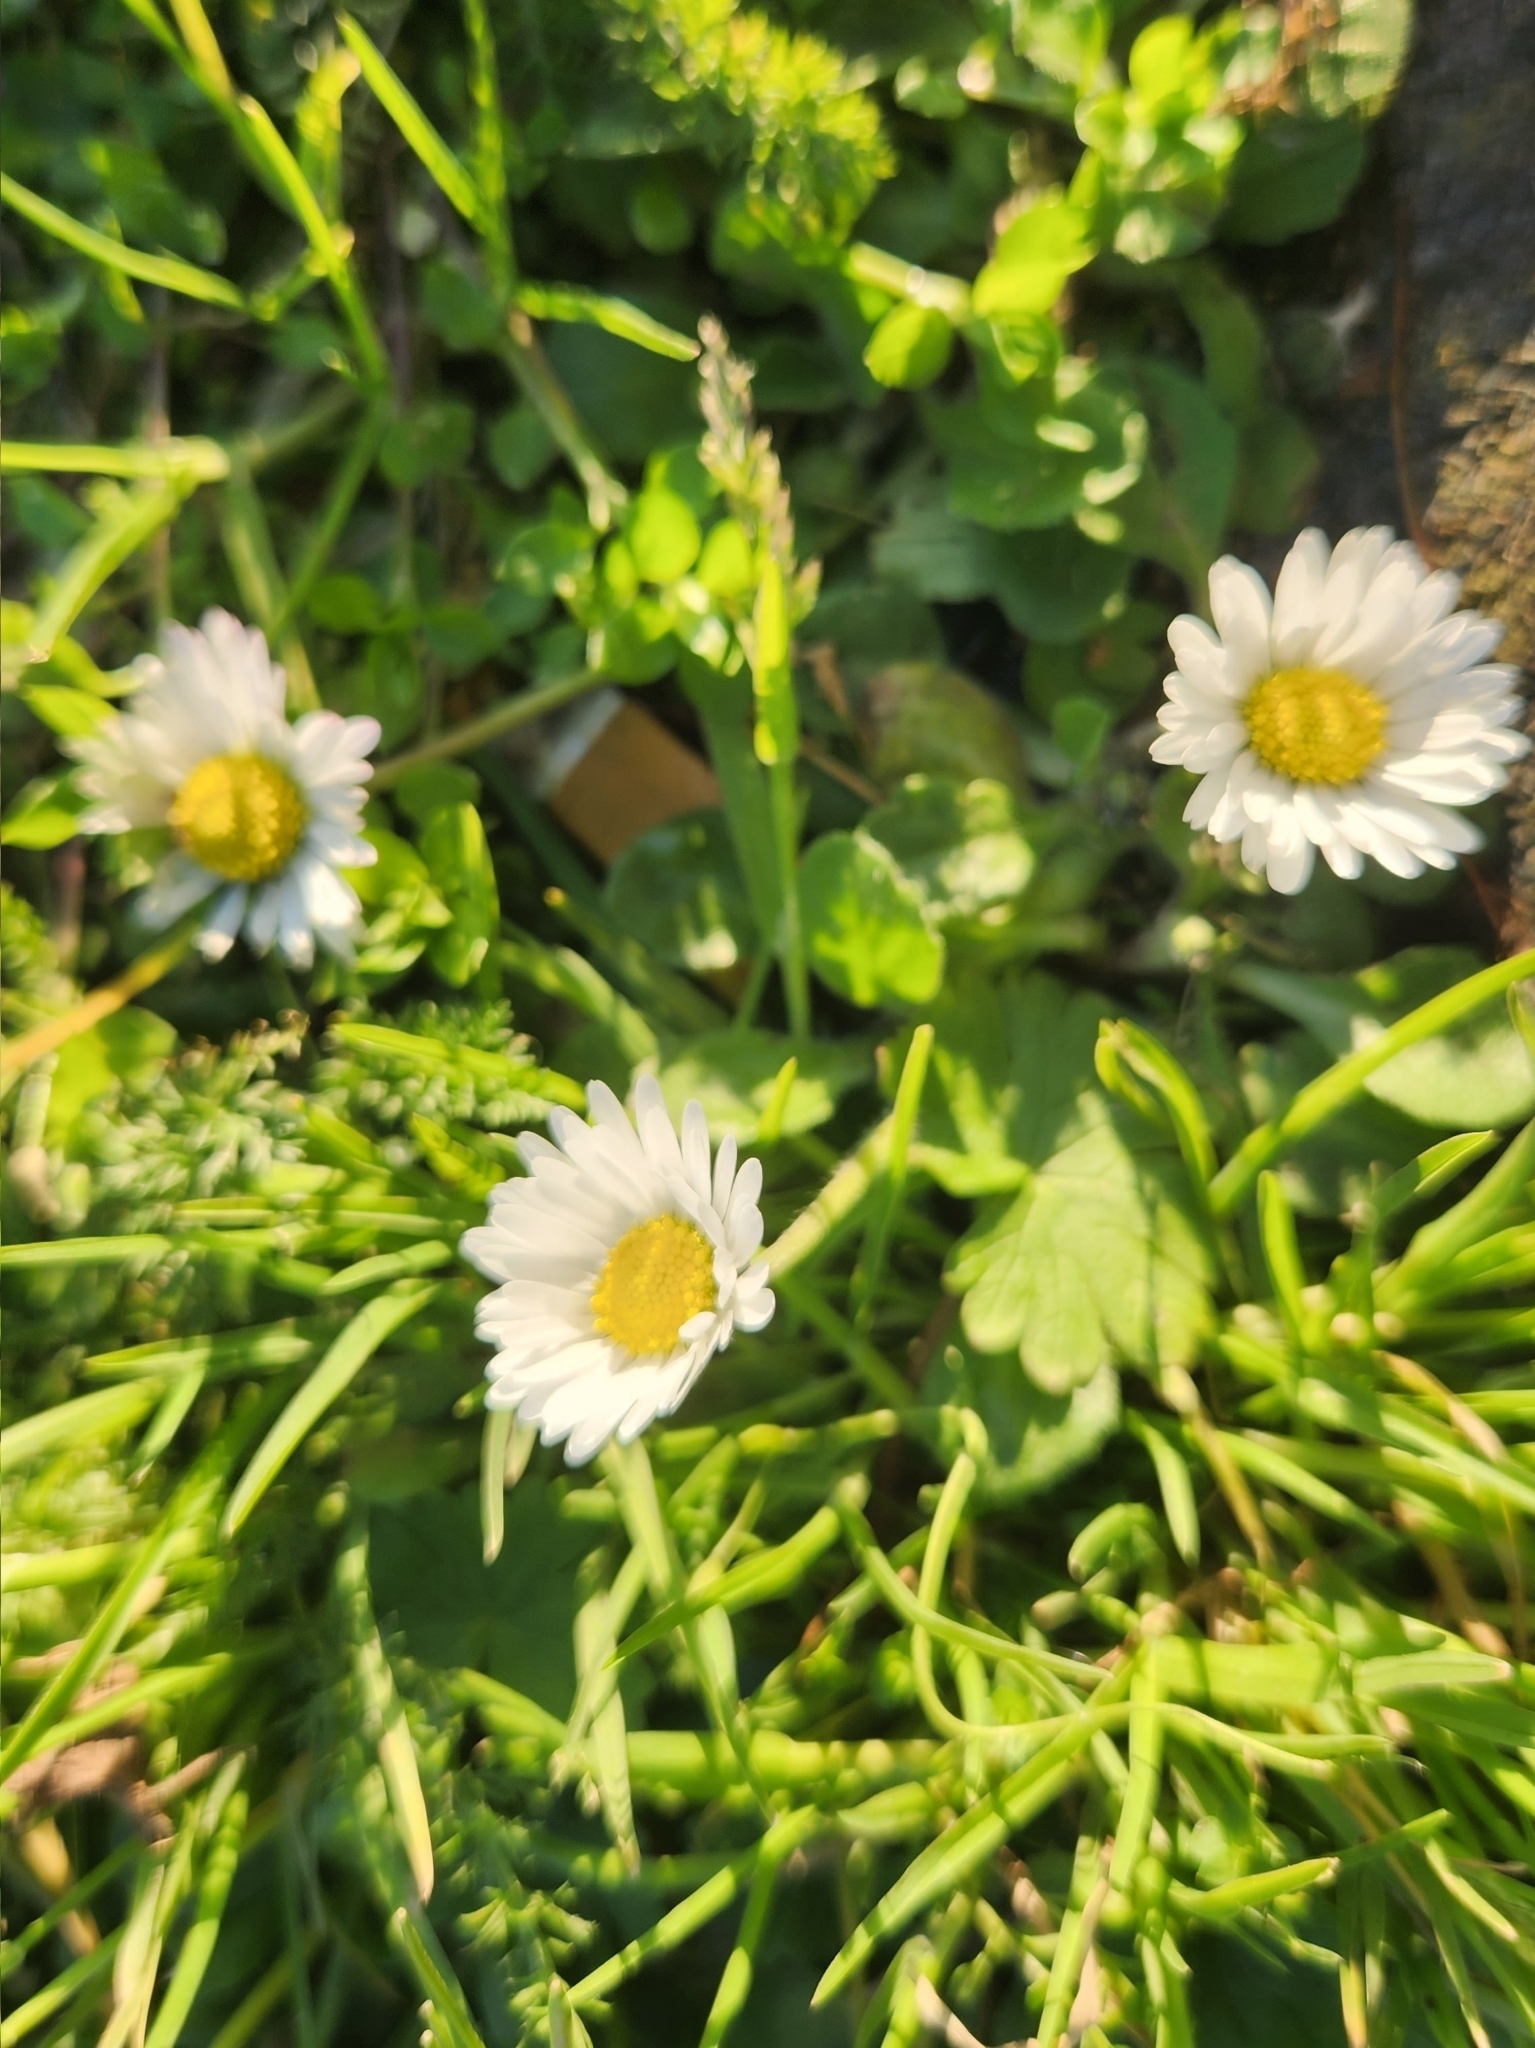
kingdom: Plantae
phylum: Tracheophyta
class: Magnoliopsida
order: Asterales
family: Asteraceae
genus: Bellis
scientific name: Bellis perennis
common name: Lawndaisy
